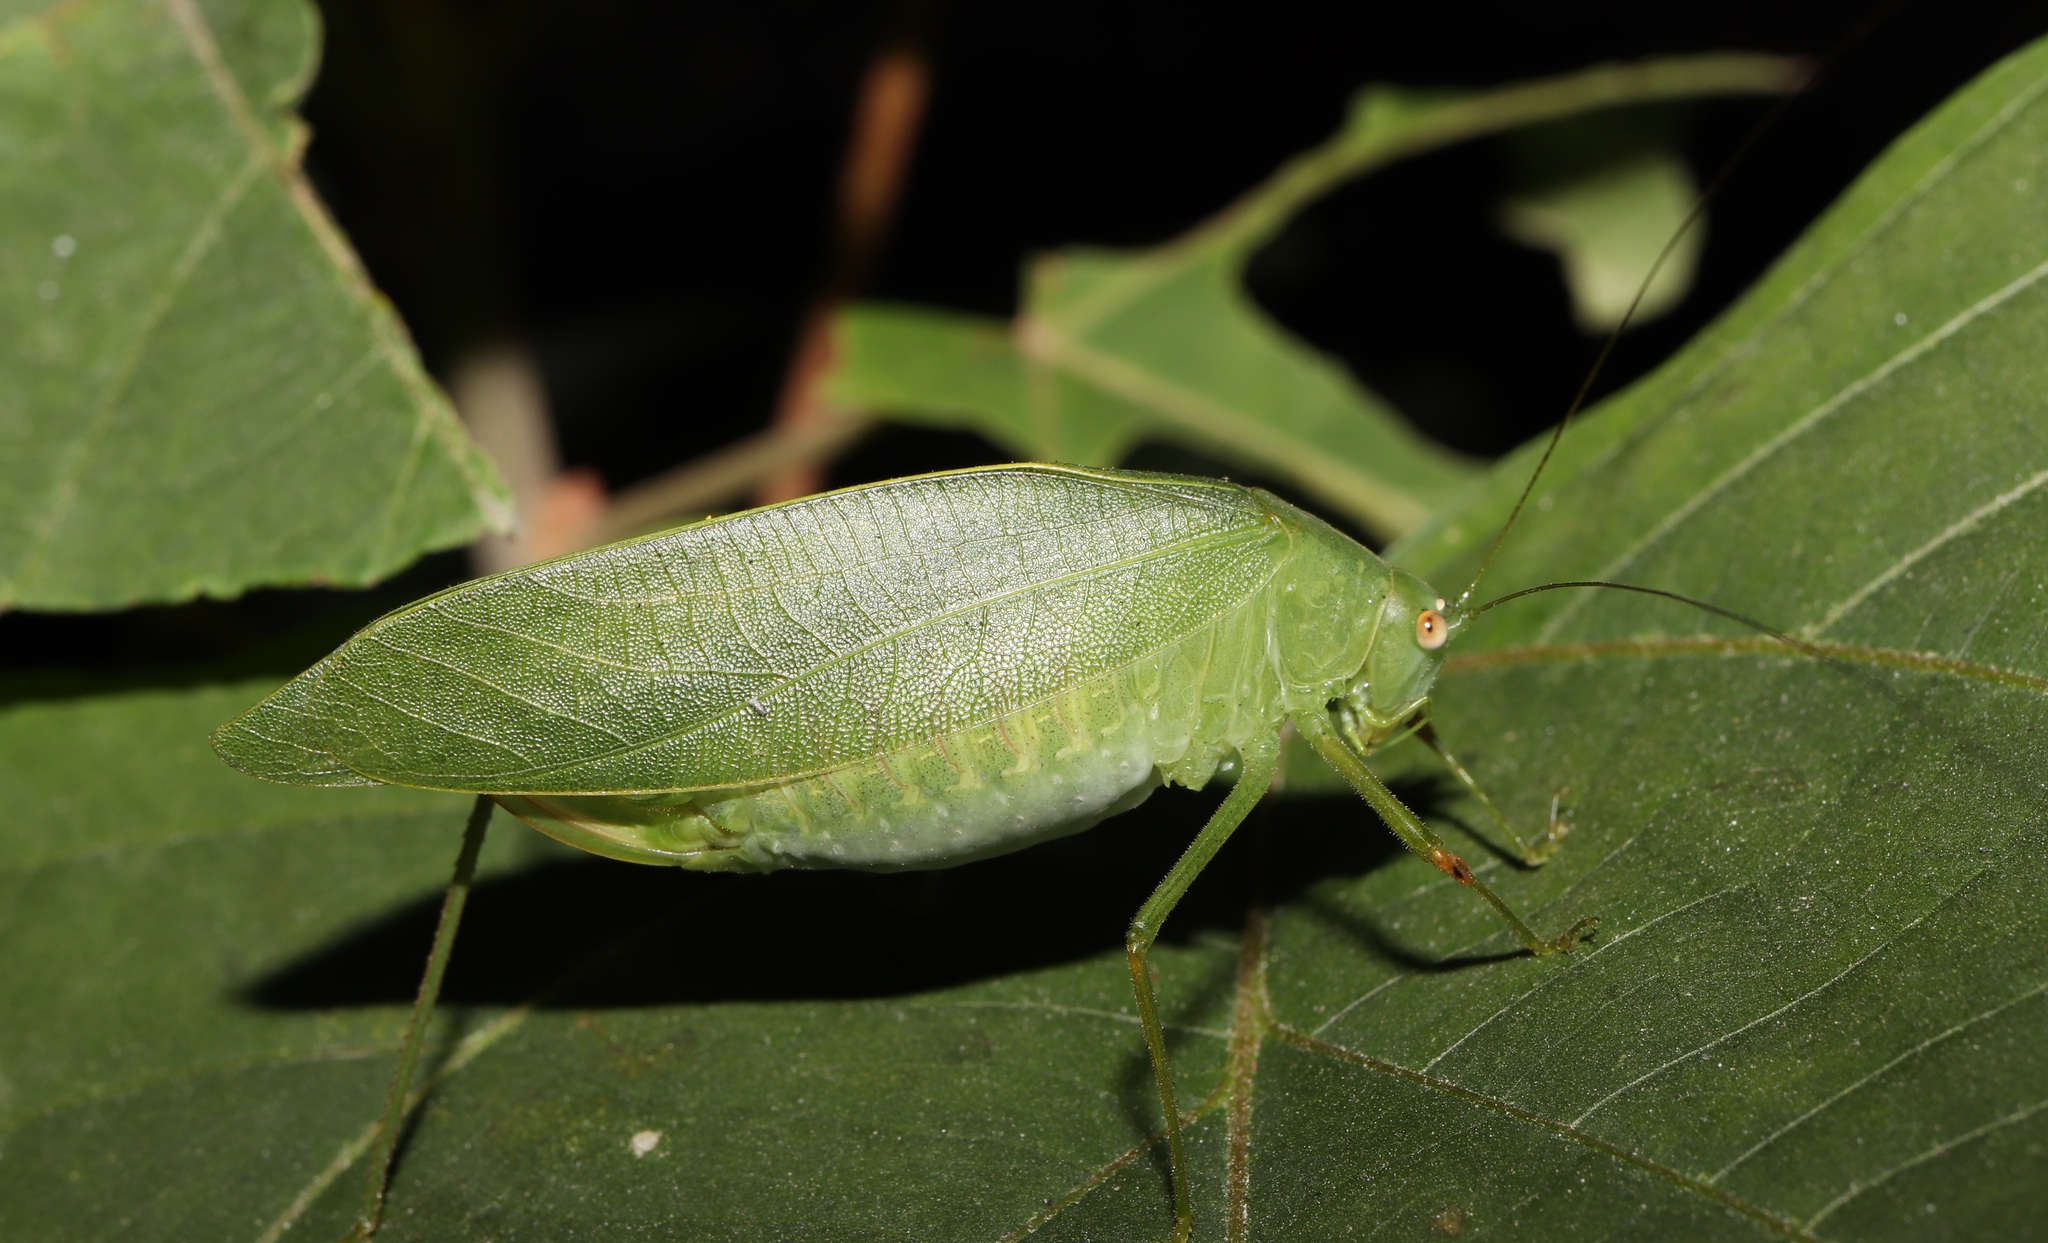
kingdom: Animalia
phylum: Arthropoda
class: Insecta
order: Orthoptera
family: Tettigoniidae
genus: Phaulula
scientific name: Phaulula macilenta
